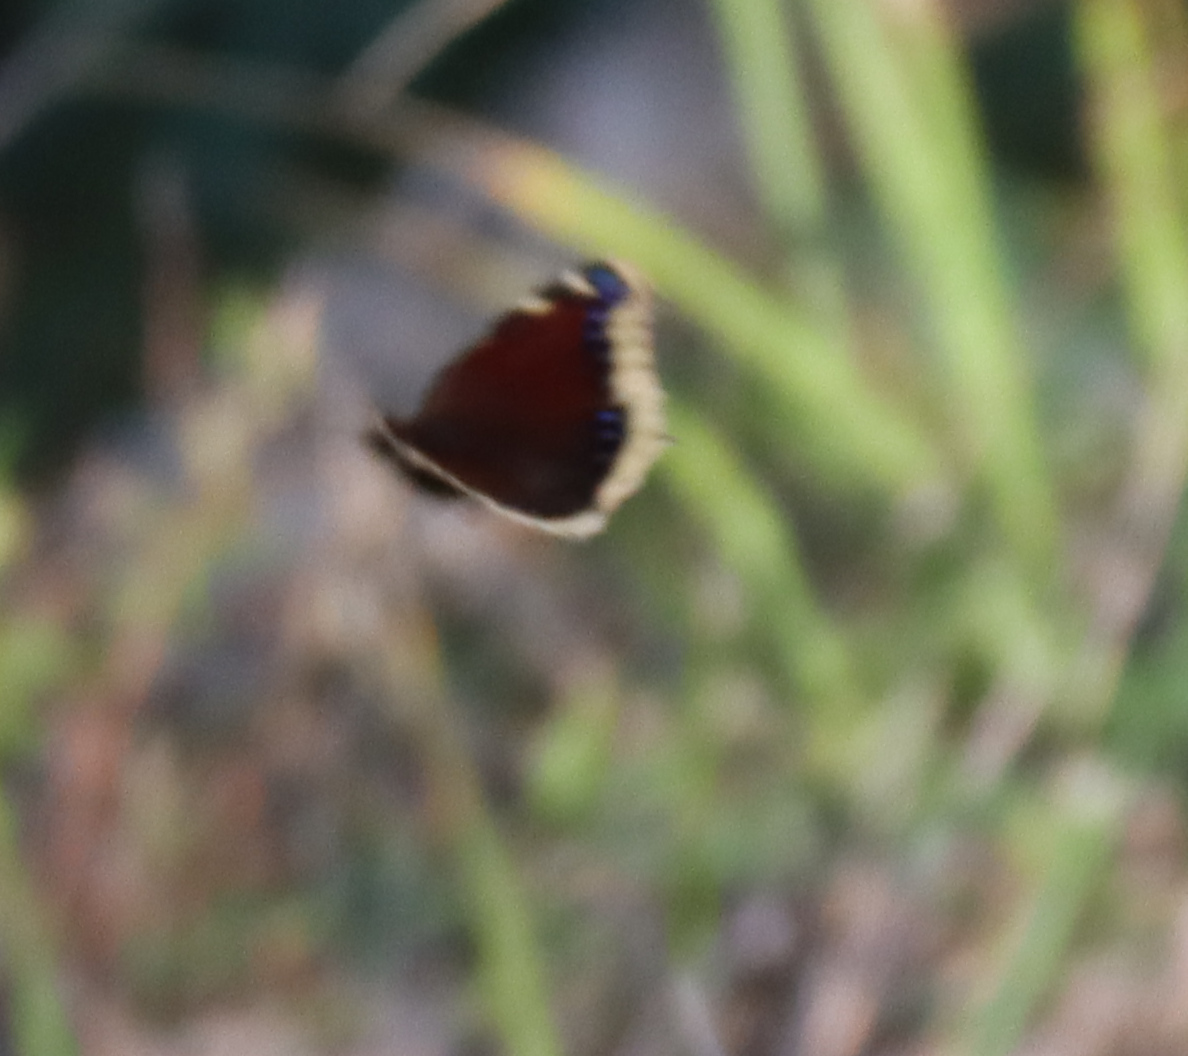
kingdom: Animalia
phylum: Arthropoda
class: Insecta
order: Lepidoptera
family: Nymphalidae
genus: Nymphalis
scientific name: Nymphalis antiopa
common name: Camberwell beauty
